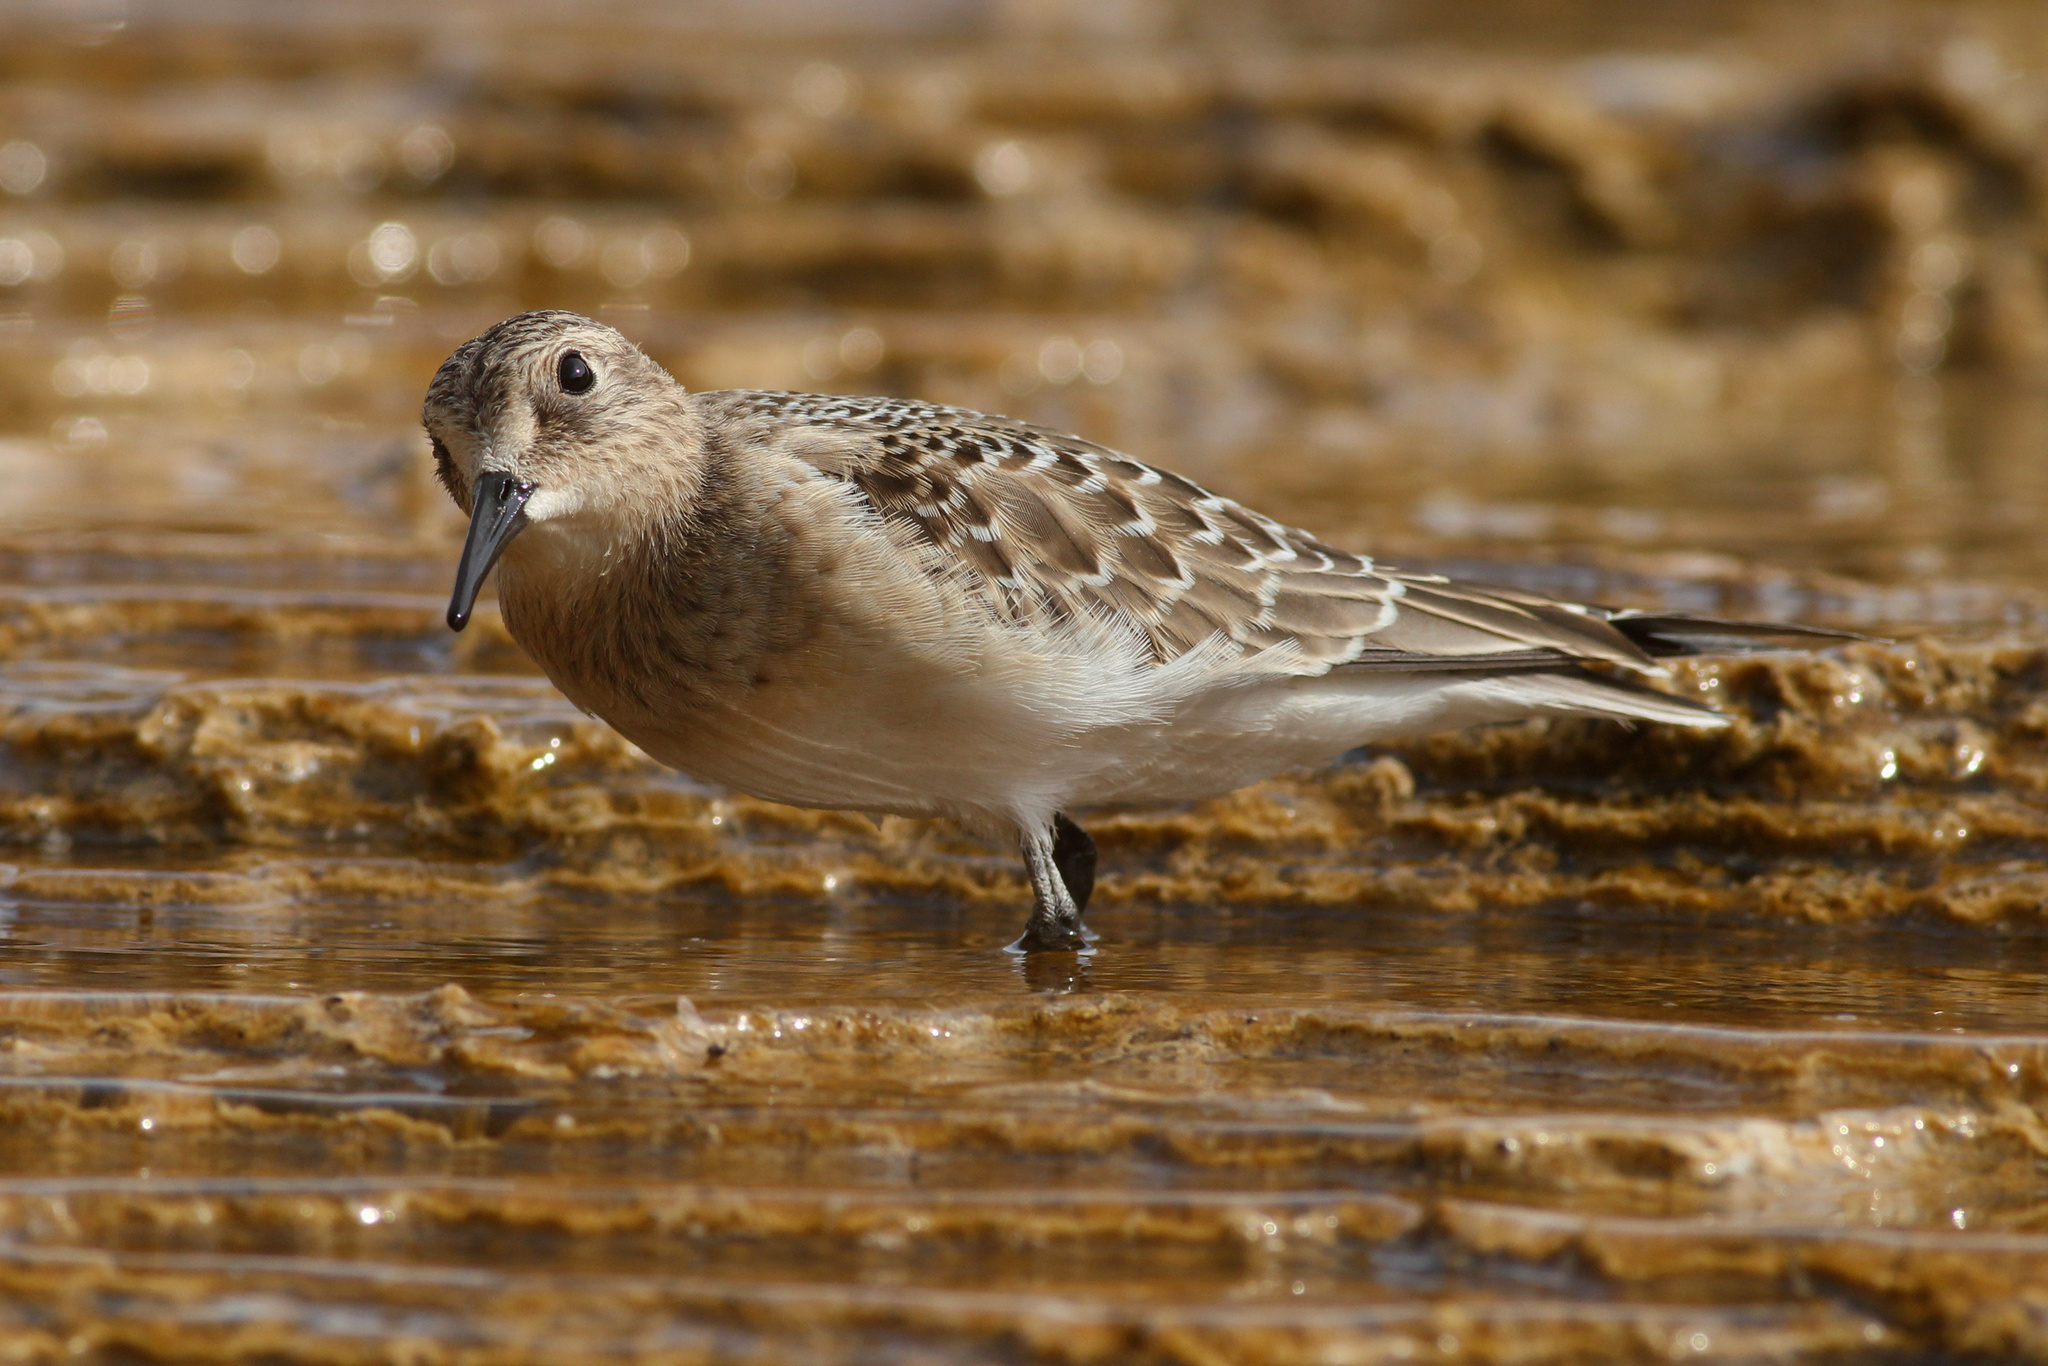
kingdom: Animalia
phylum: Chordata
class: Aves
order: Charadriiformes
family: Scolopacidae
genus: Calidris
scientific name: Calidris bairdii
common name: Baird's sandpiper
